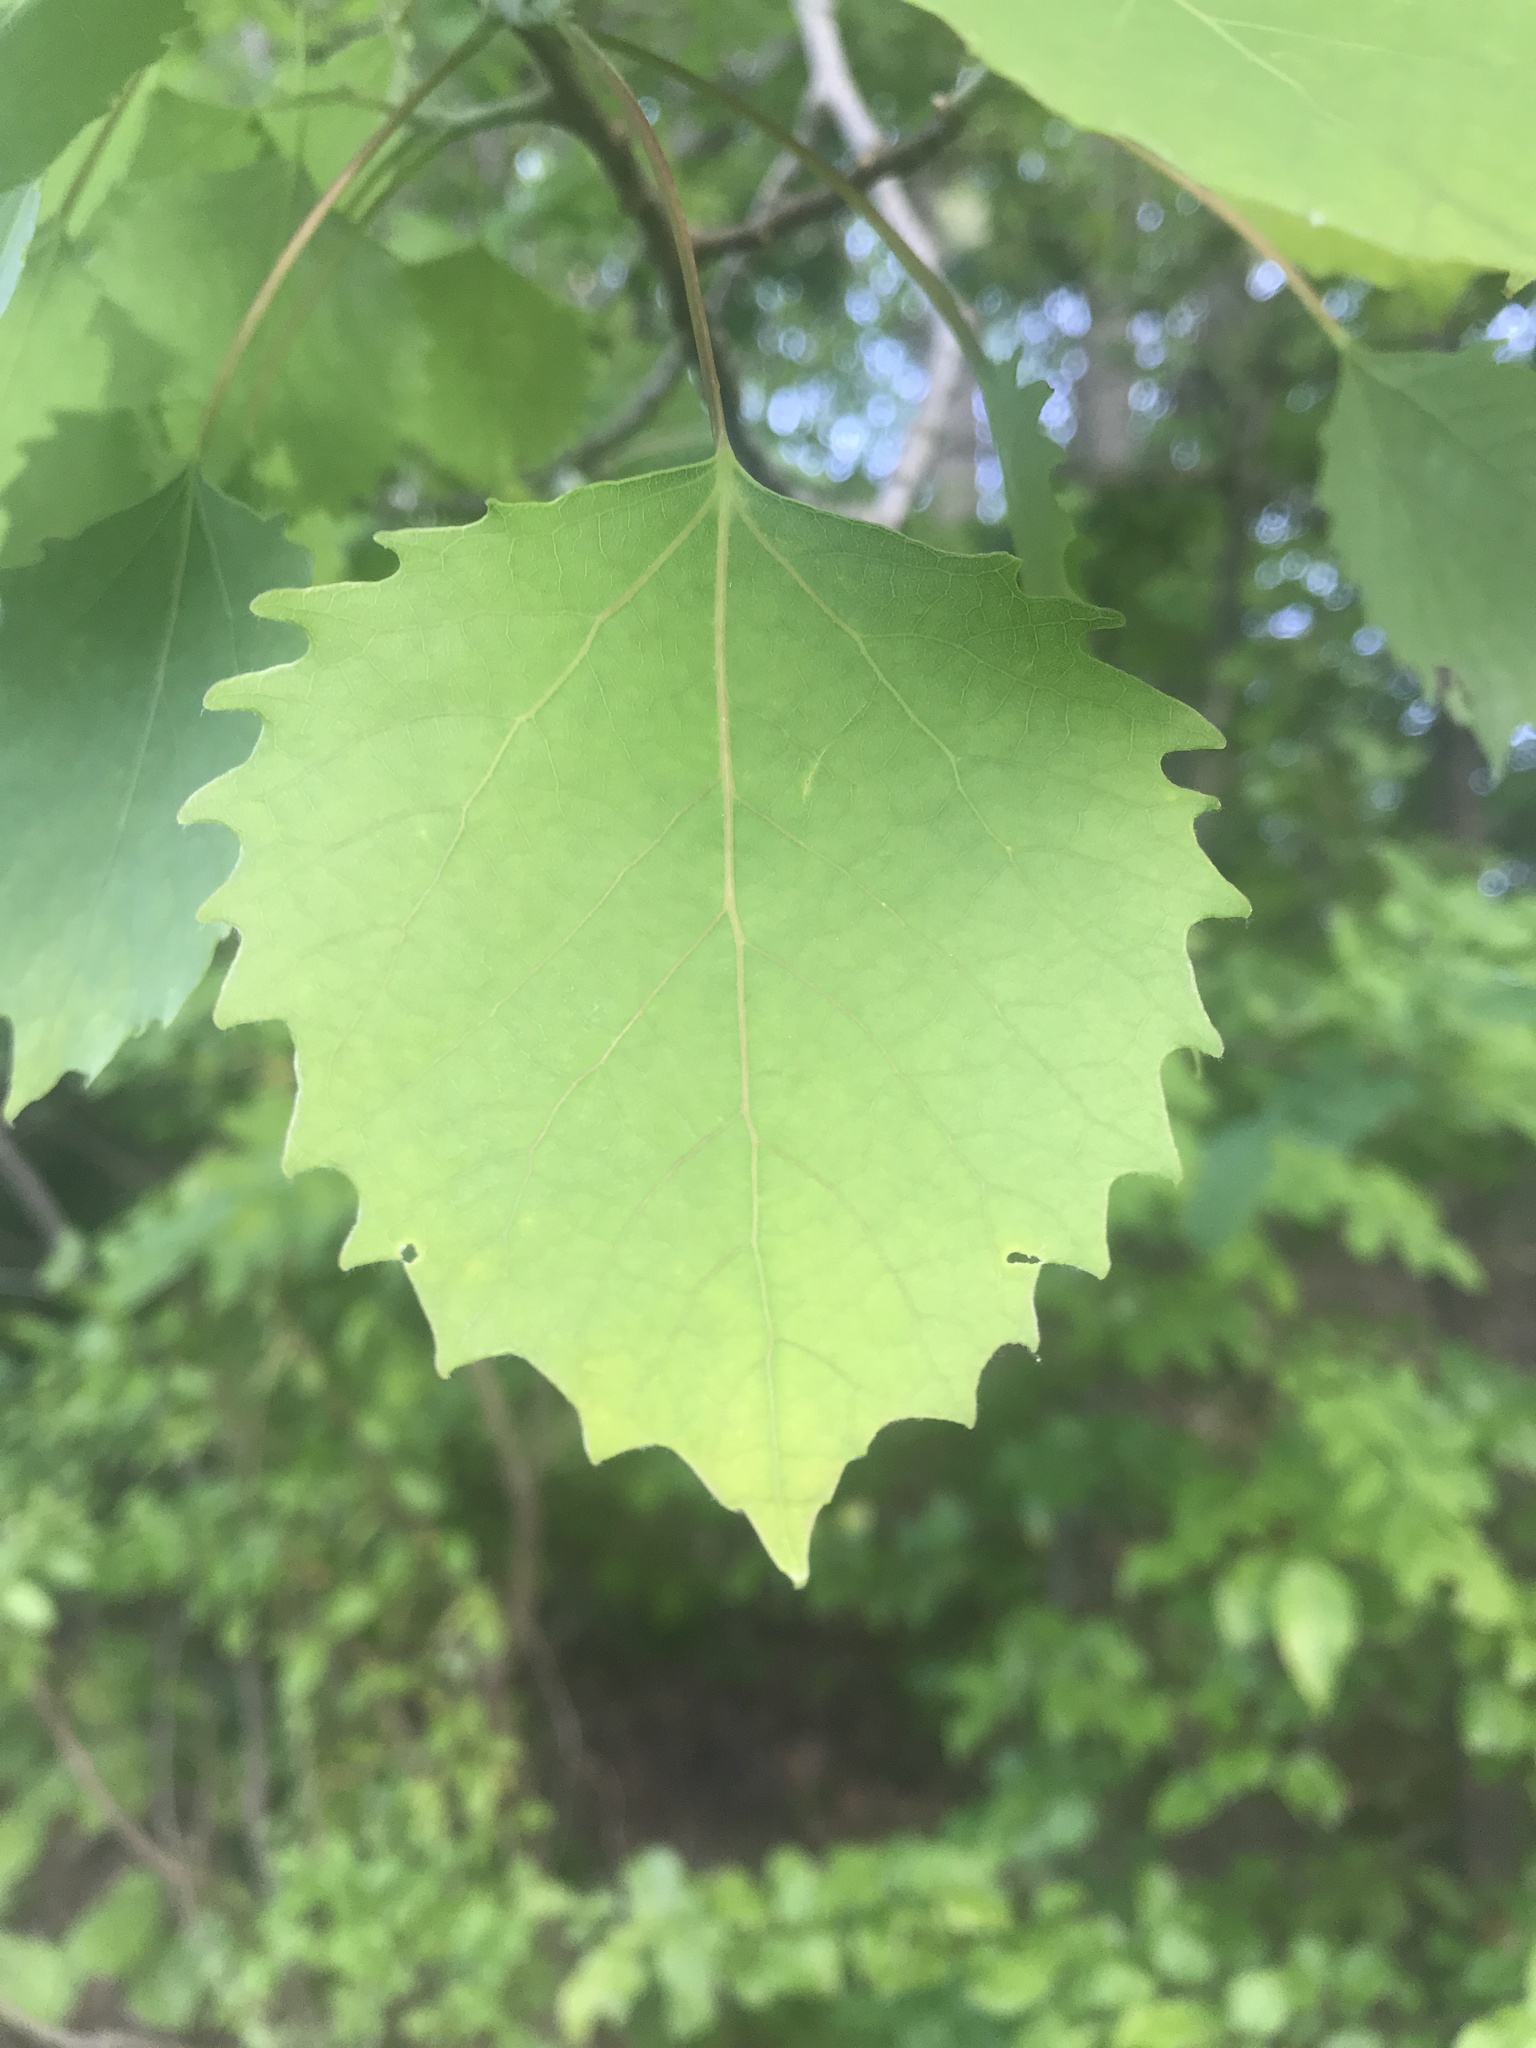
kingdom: Plantae
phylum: Tracheophyta
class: Magnoliopsida
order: Malpighiales
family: Salicaceae
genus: Populus
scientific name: Populus grandidentata
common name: Bigtooth aspen
